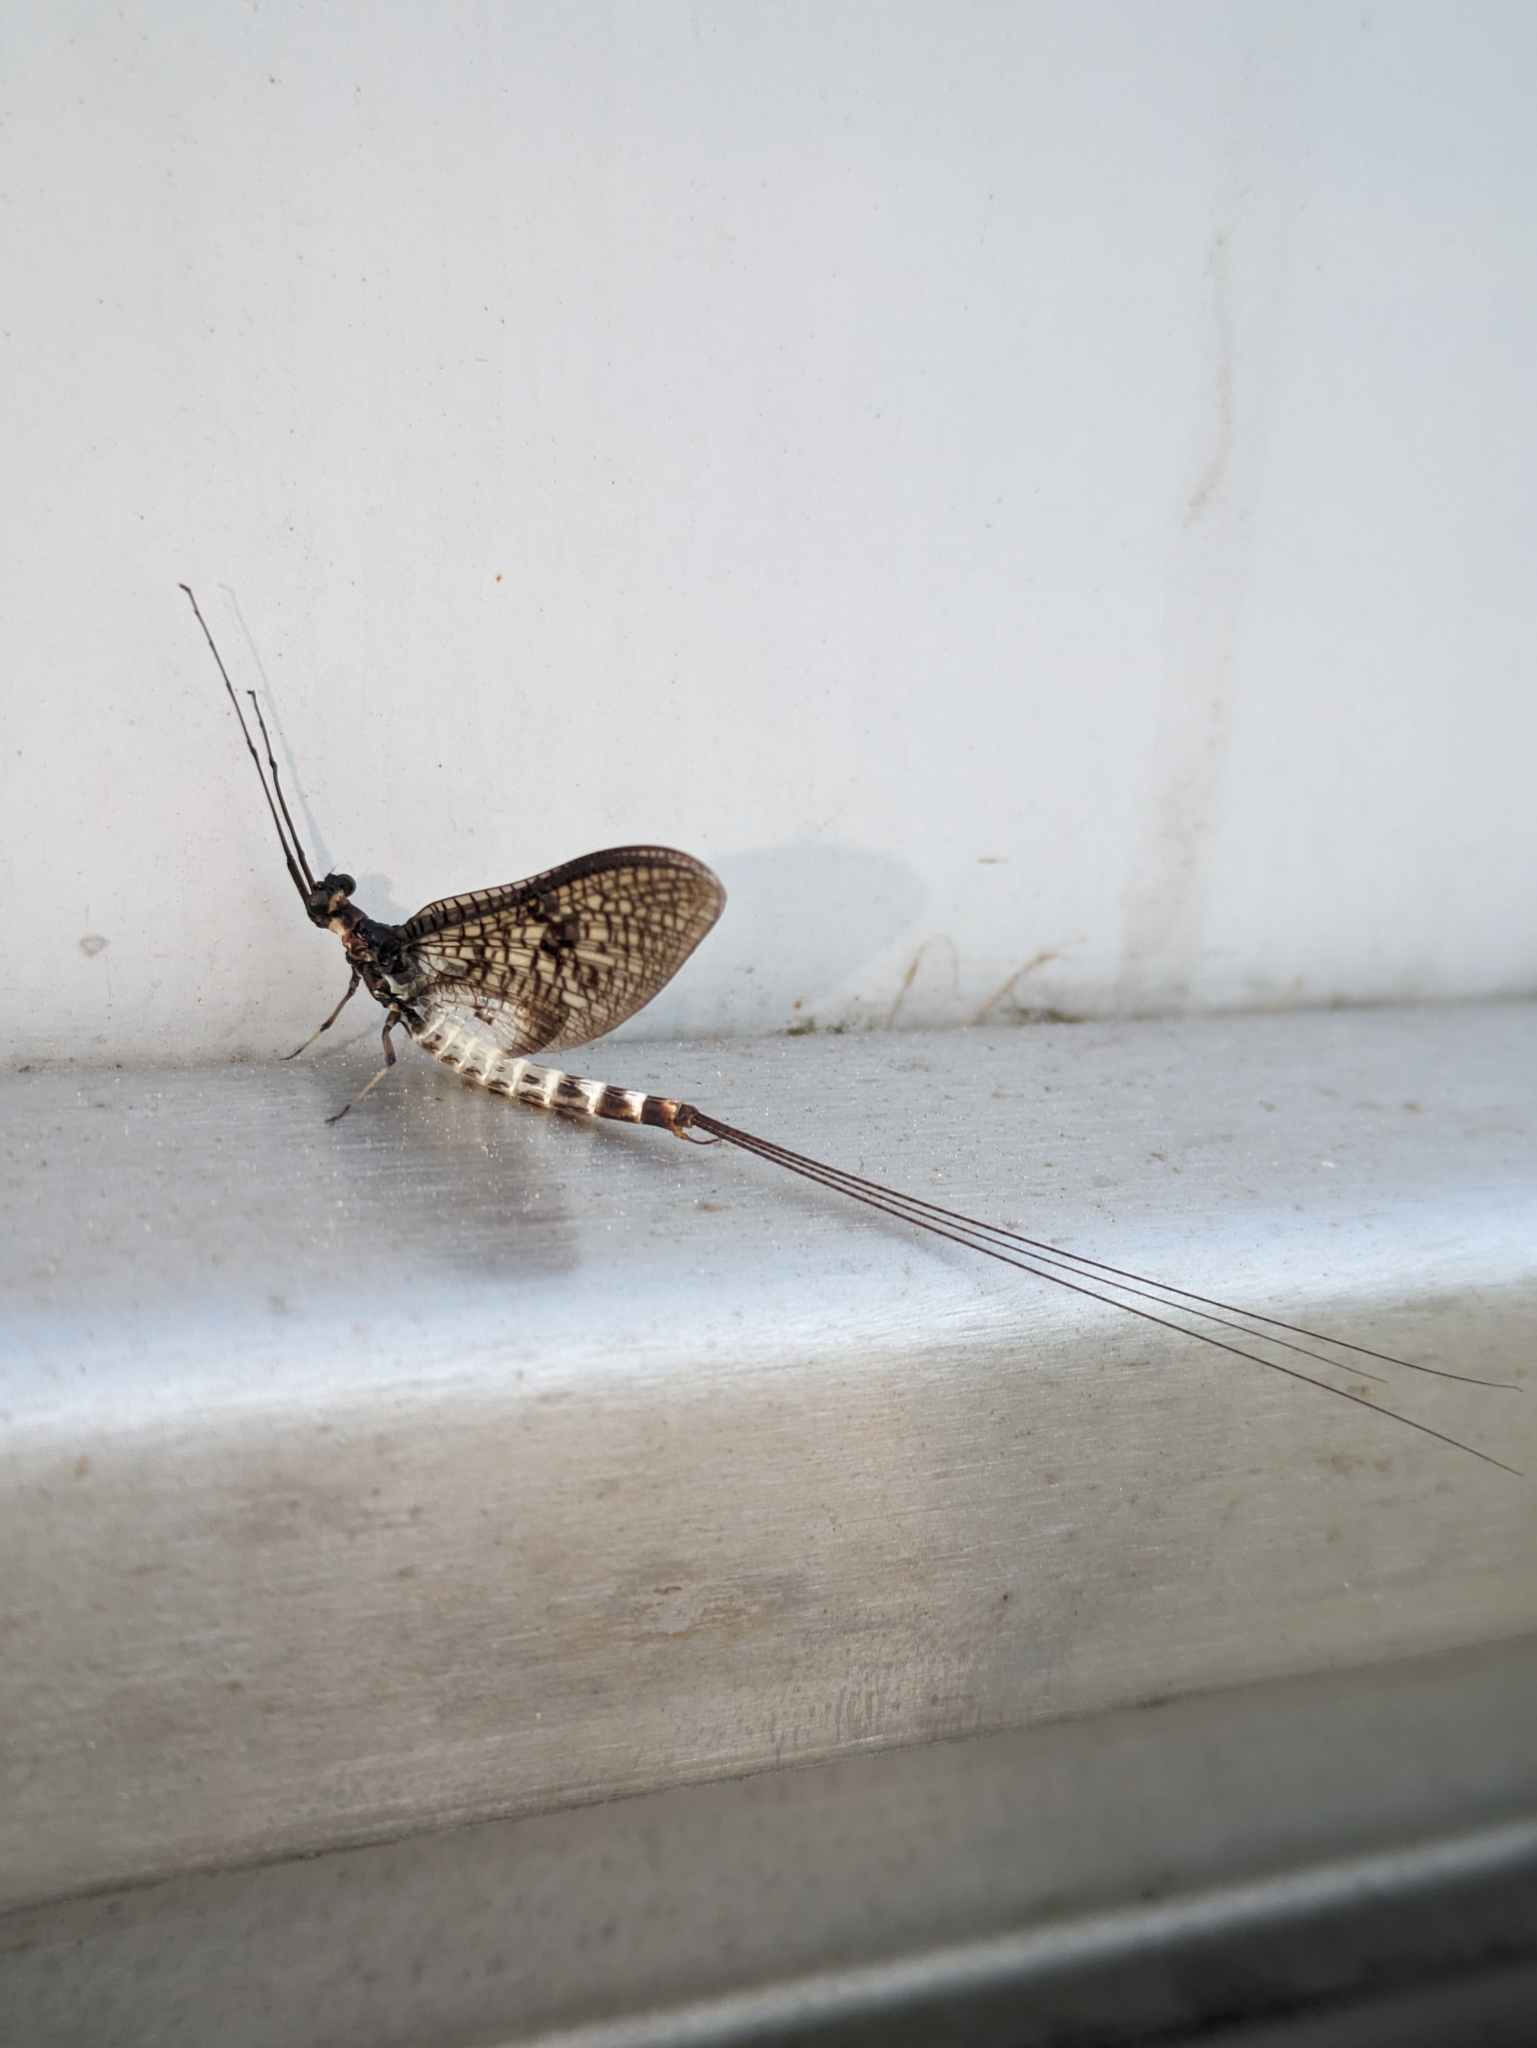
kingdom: Animalia
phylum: Arthropoda
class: Insecta
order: Ephemeroptera
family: Ephemeridae
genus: Ephemera
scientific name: Ephemera danica
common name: Green dun
